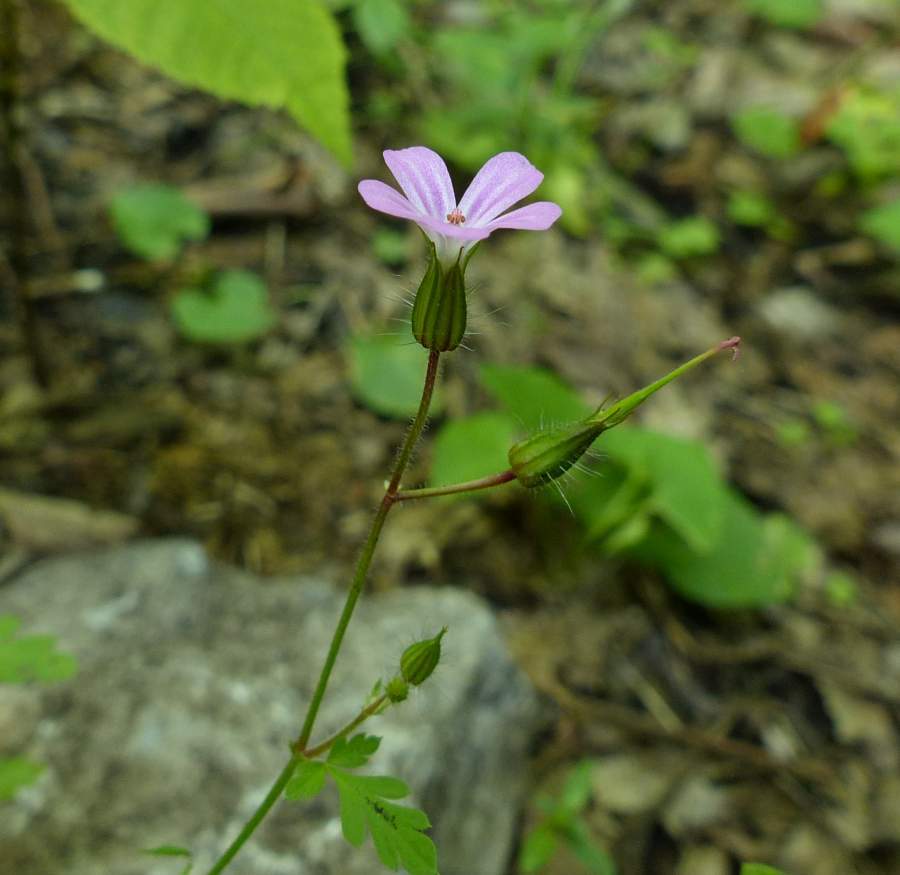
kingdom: Plantae
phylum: Tracheophyta
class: Magnoliopsida
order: Geraniales
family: Geraniaceae
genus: Geranium
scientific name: Geranium robertianum
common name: Herb-robert
